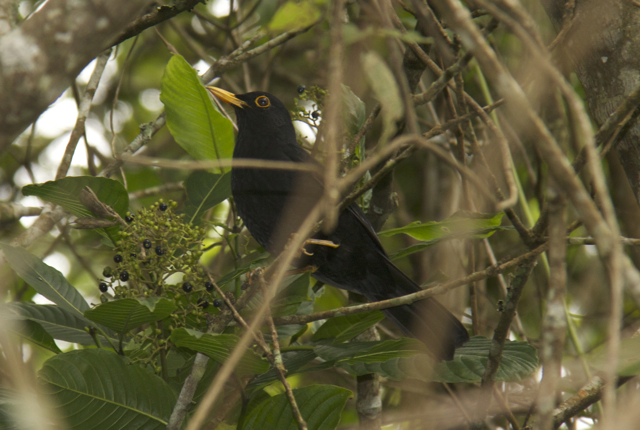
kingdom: Animalia
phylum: Chordata
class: Aves
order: Passeriformes
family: Turdidae
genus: Turdus
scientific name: Turdus serranus
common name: Glossy-black thrush
